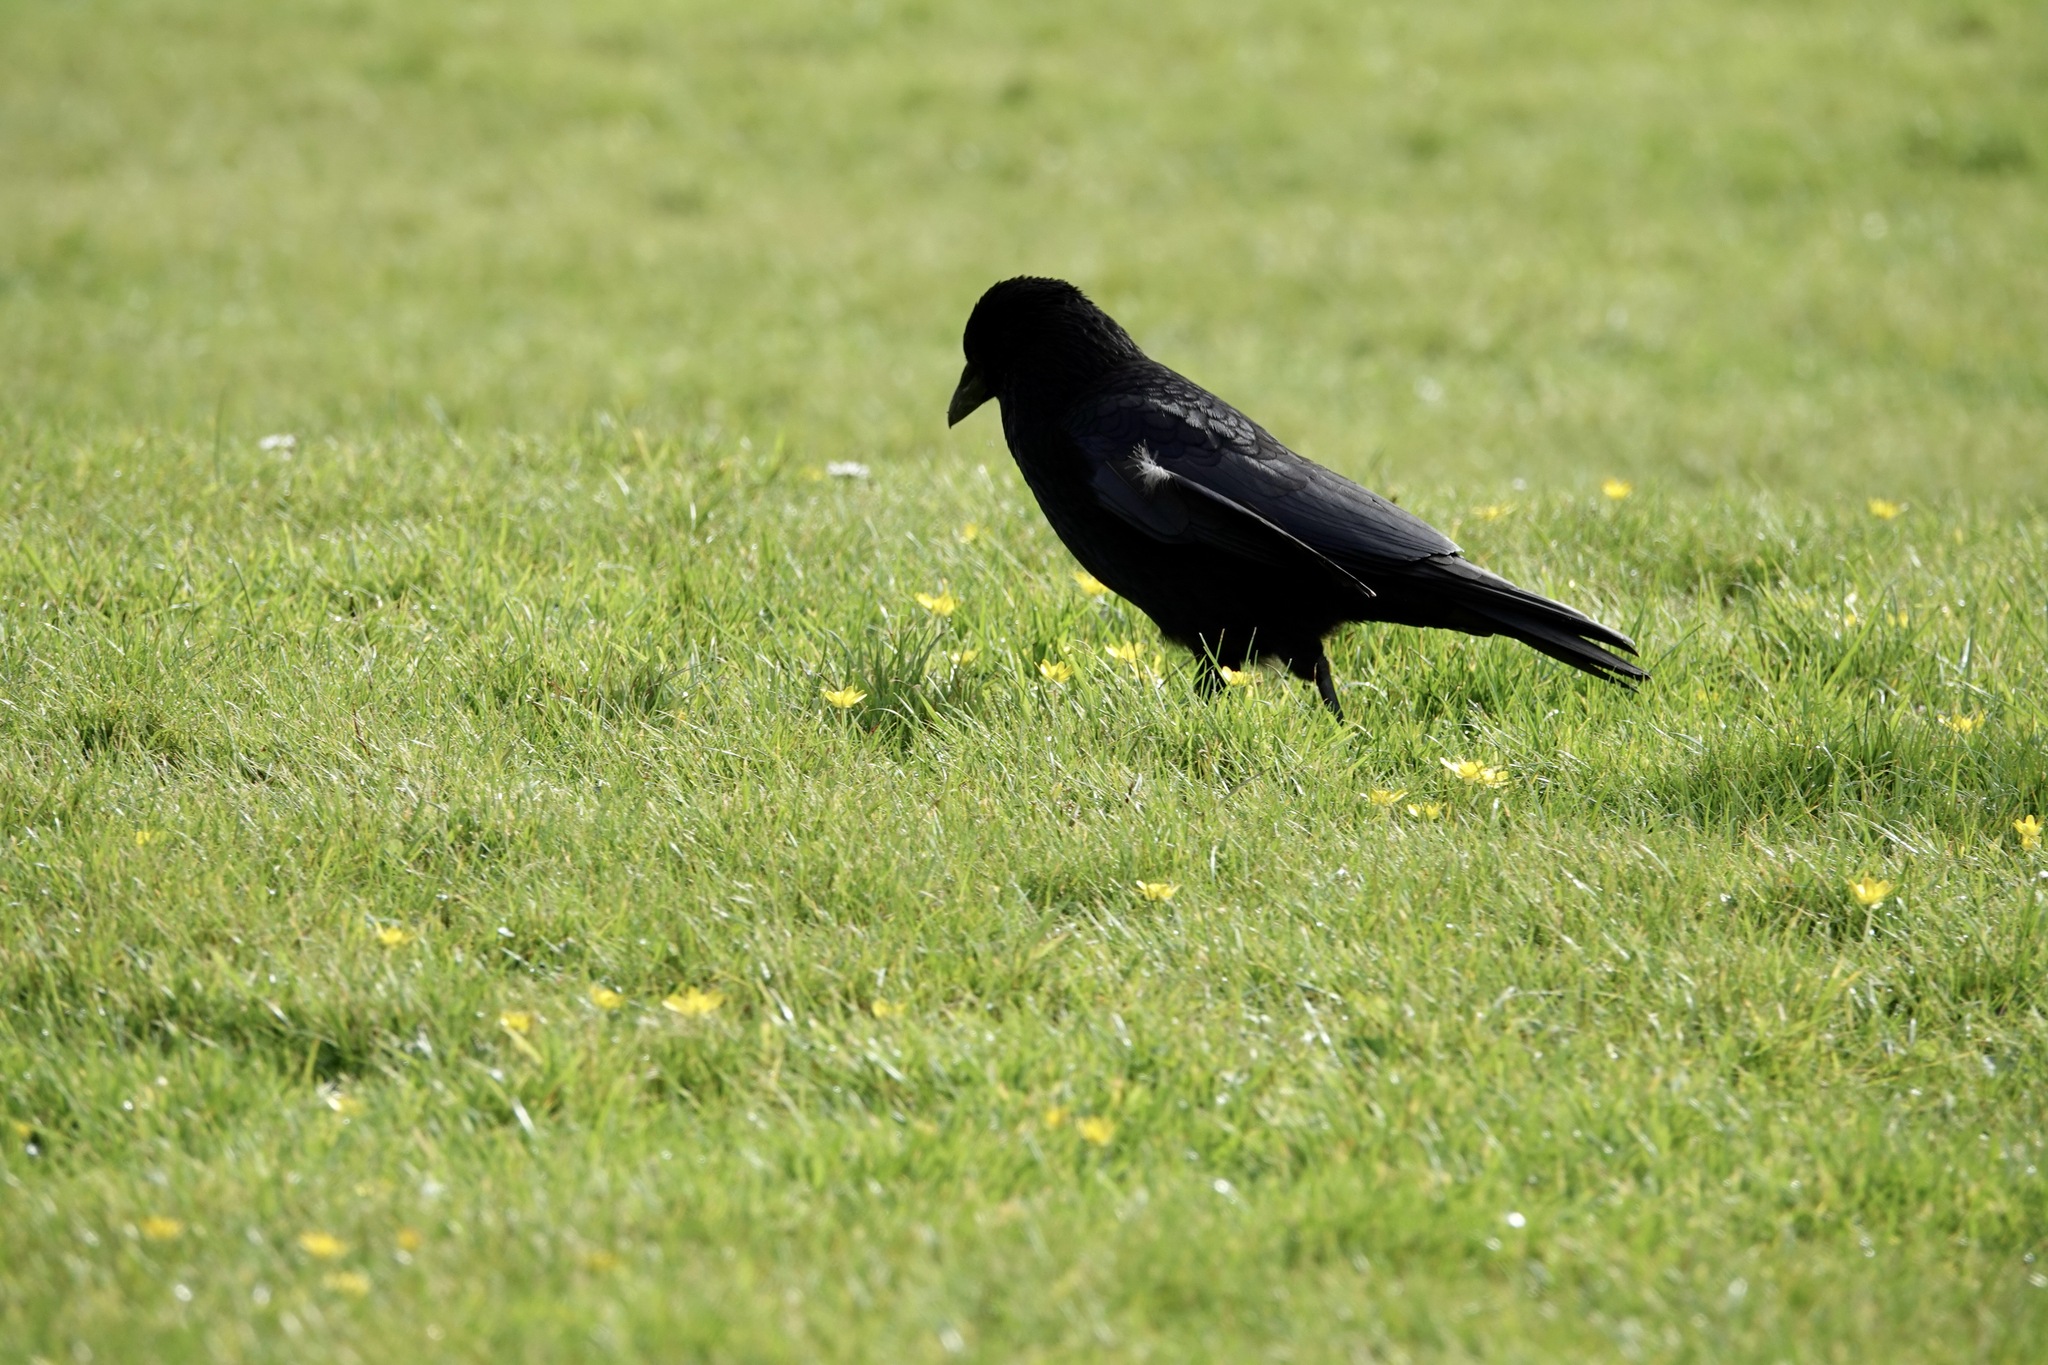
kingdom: Animalia
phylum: Chordata
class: Aves
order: Passeriformes
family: Corvidae
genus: Corvus
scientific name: Corvus corone
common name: Carrion crow
